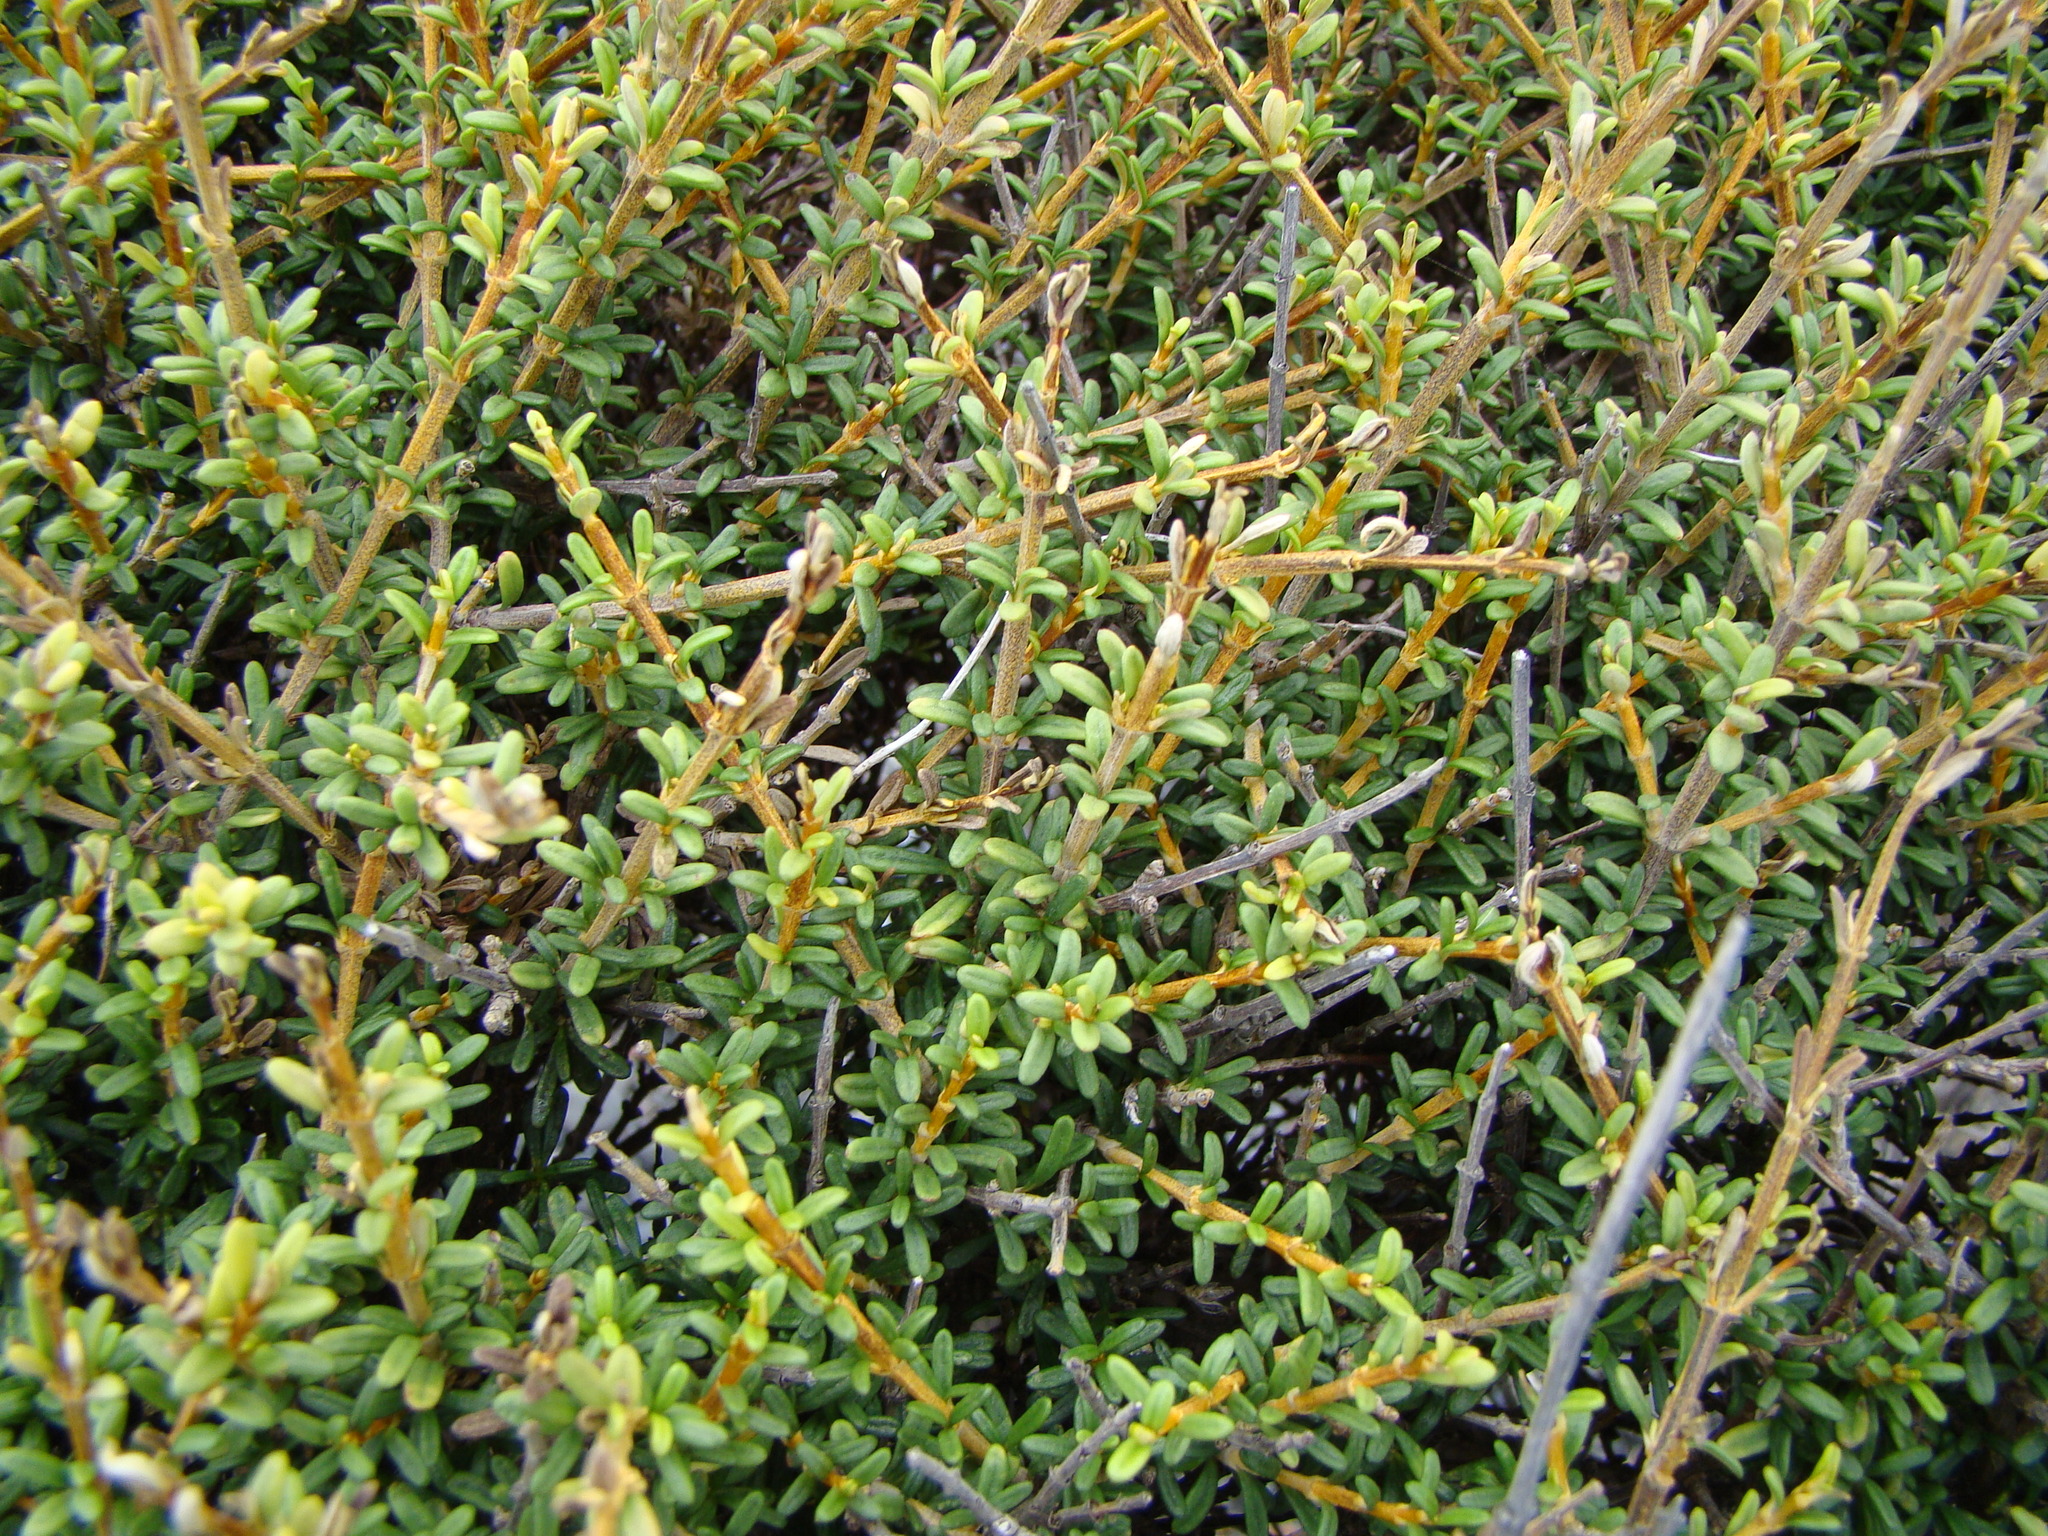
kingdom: Plantae
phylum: Tracheophyta
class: Magnoliopsida
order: Asterales
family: Asteraceae
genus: Olearia
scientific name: Olearia solandri
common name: Coastal daisybush
